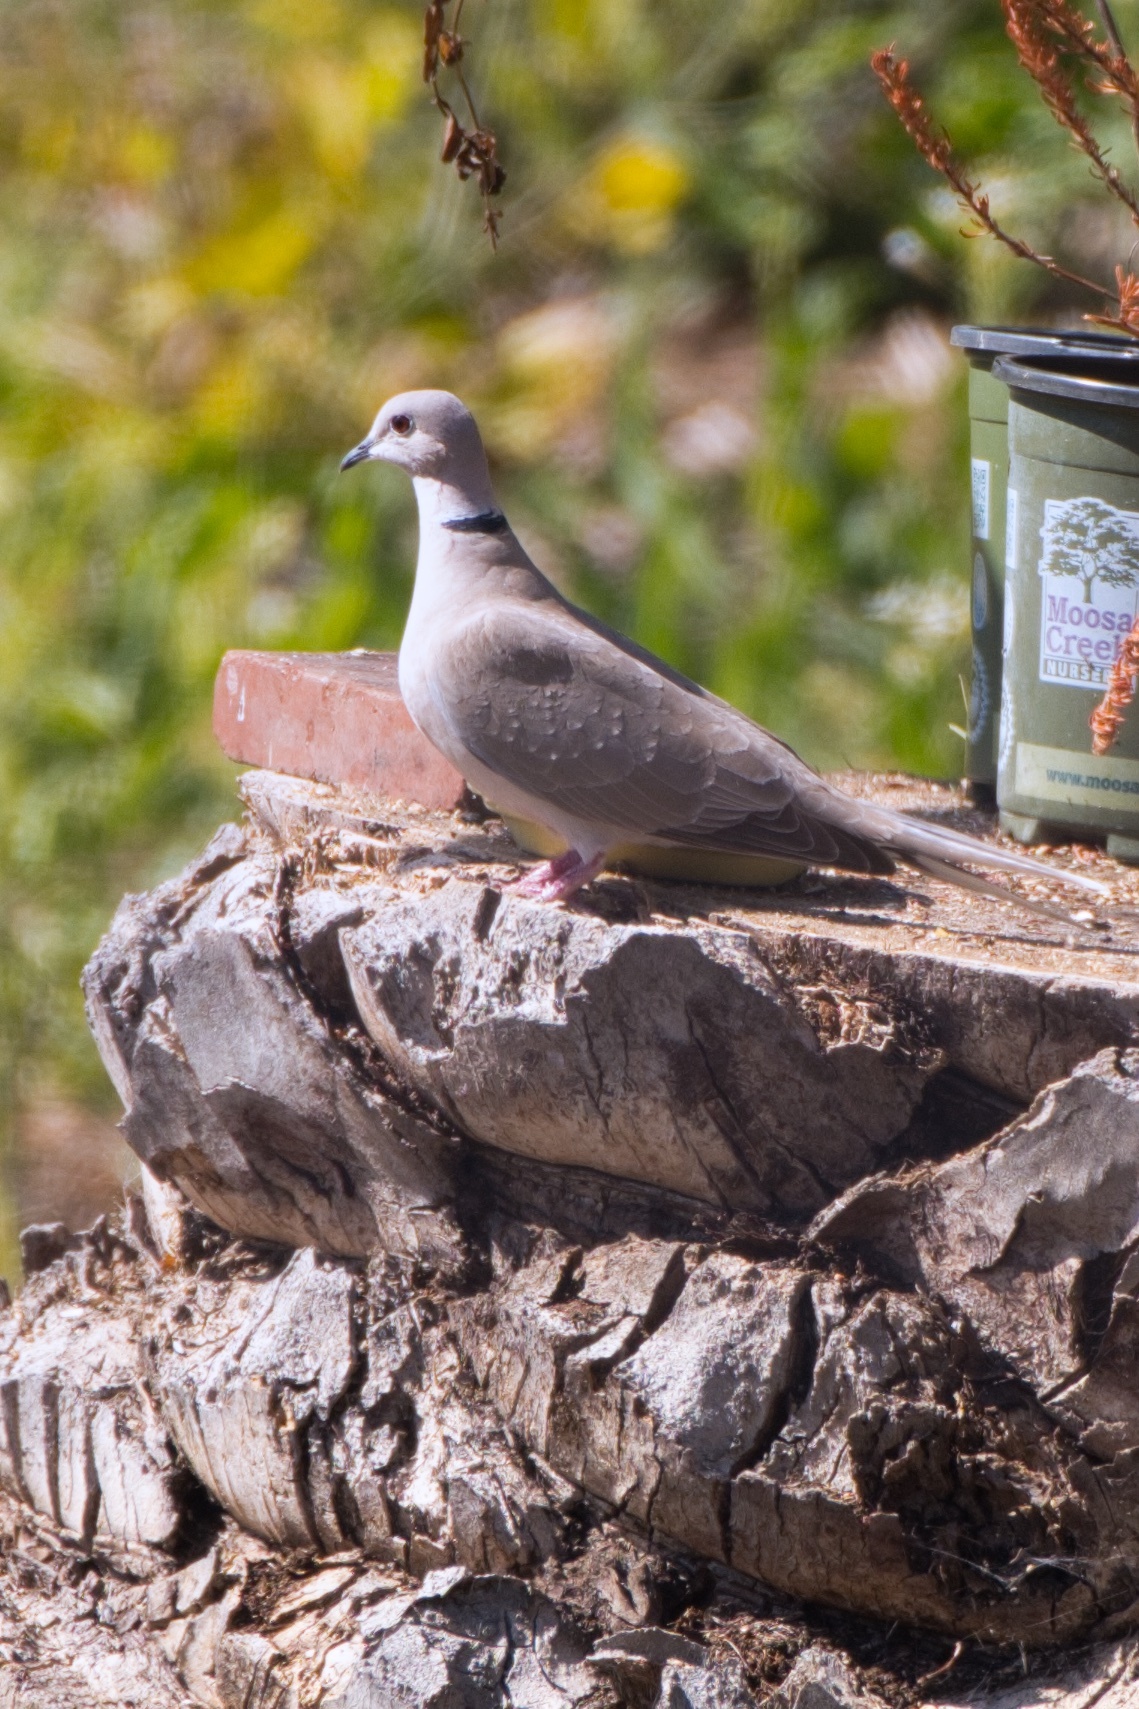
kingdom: Animalia
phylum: Chordata
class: Aves
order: Columbiformes
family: Columbidae
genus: Streptopelia
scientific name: Streptopelia decaocto
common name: Eurasian collared dove
